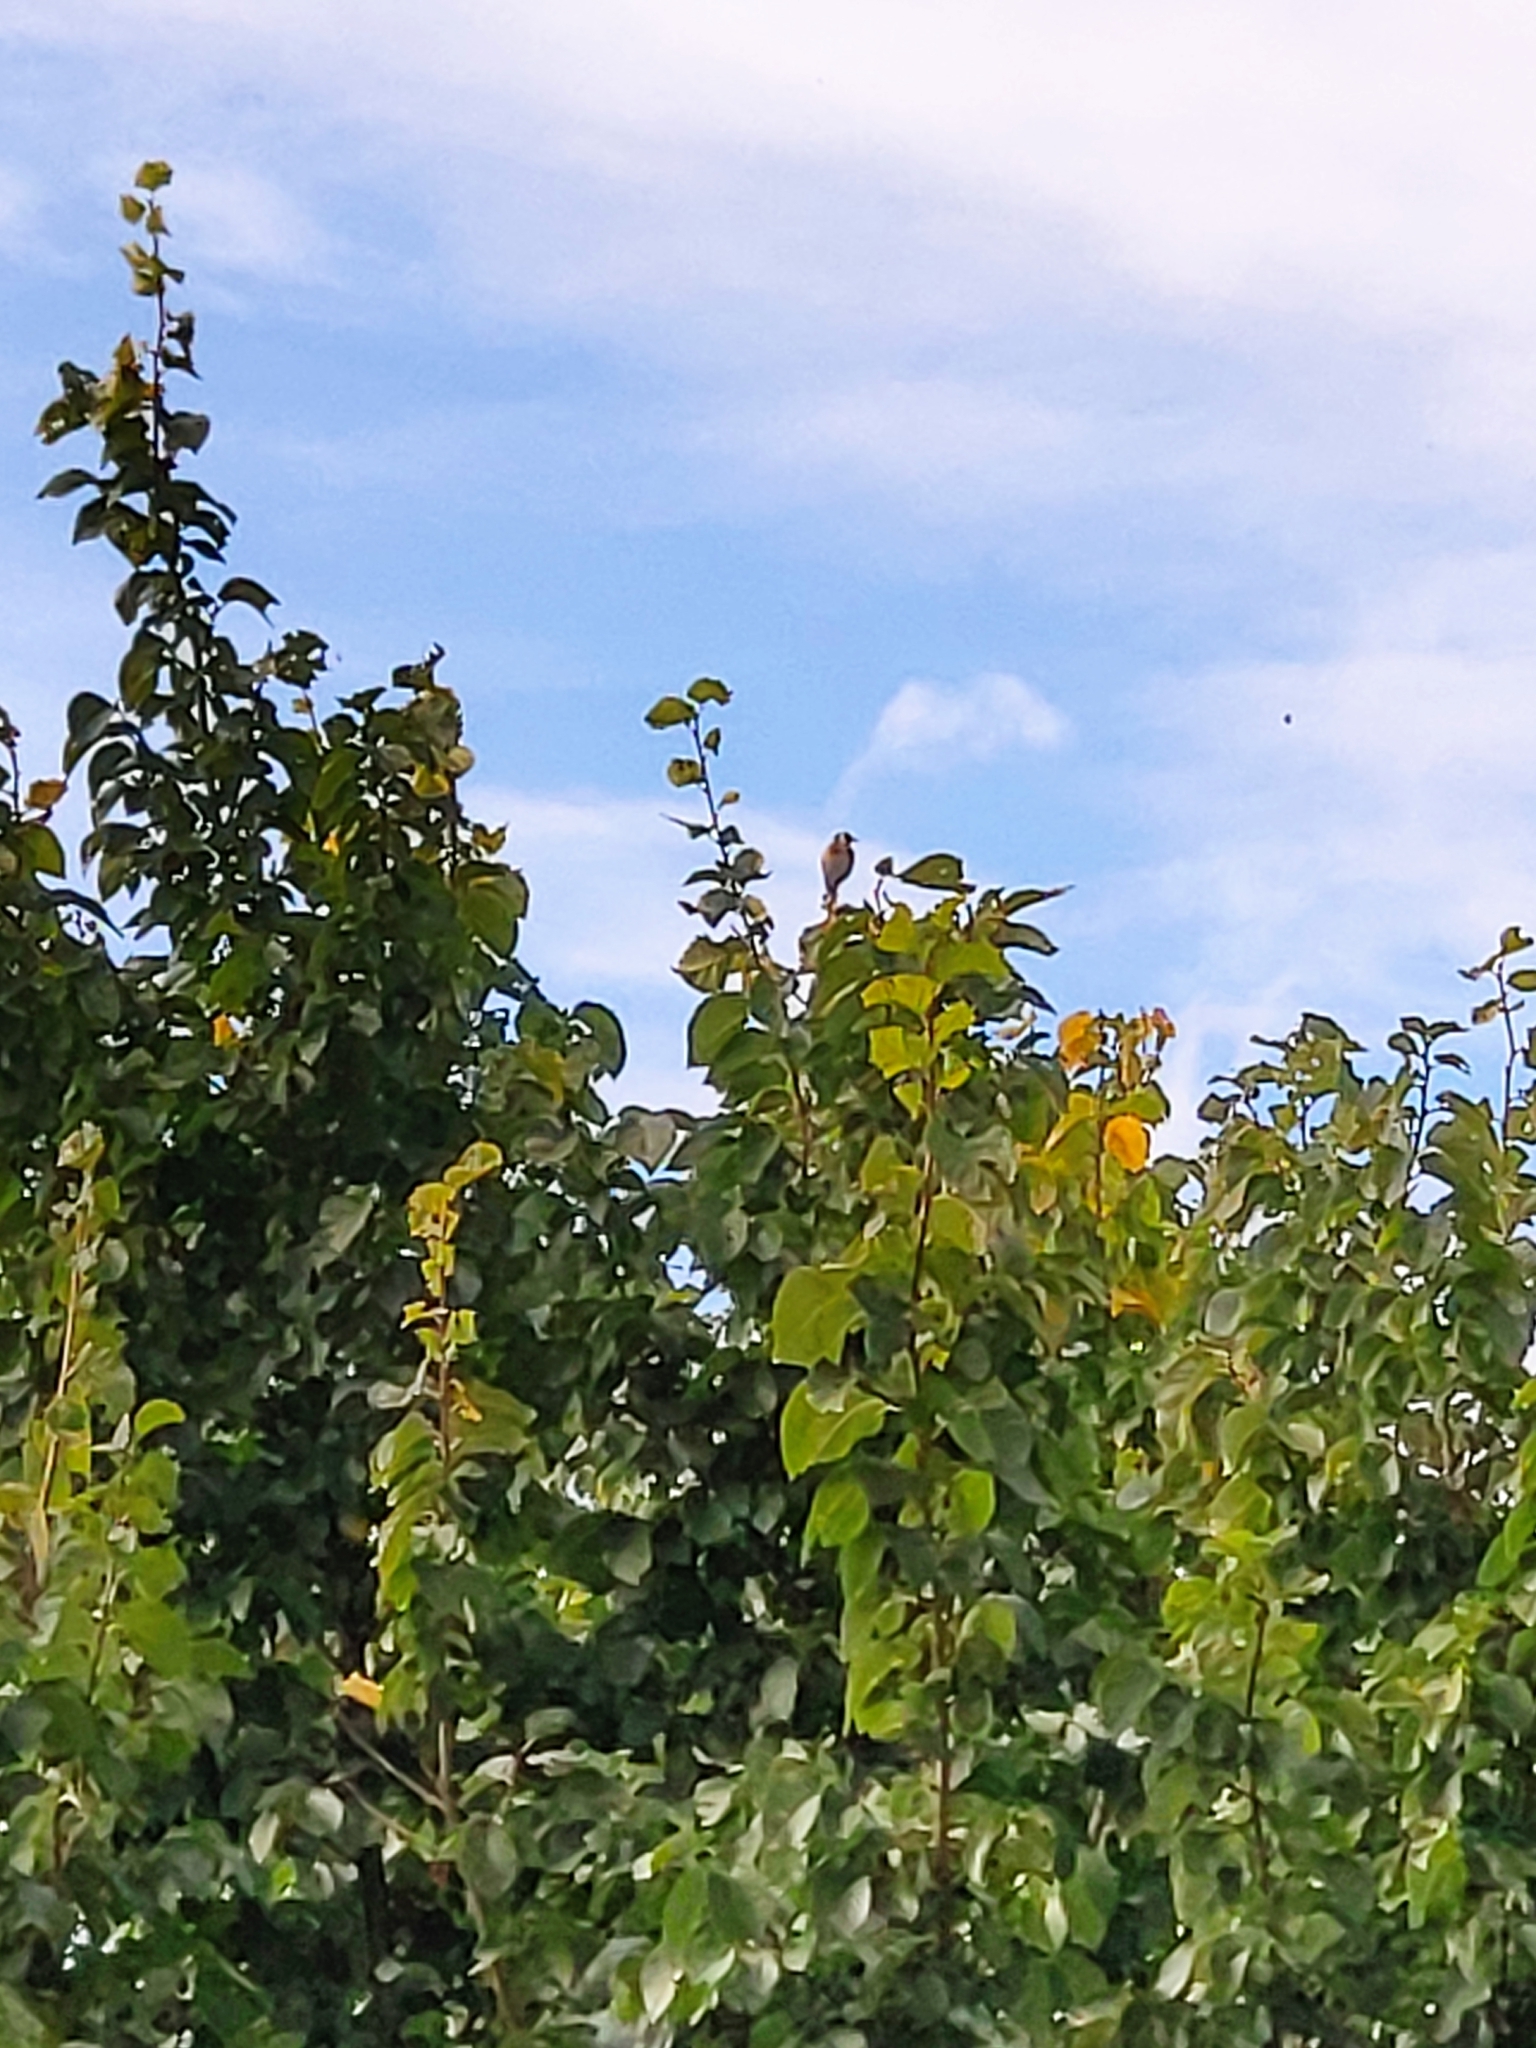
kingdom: Animalia
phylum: Chordata
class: Aves
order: Passeriformes
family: Fringillidae
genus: Carduelis
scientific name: Carduelis carduelis
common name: European goldfinch
